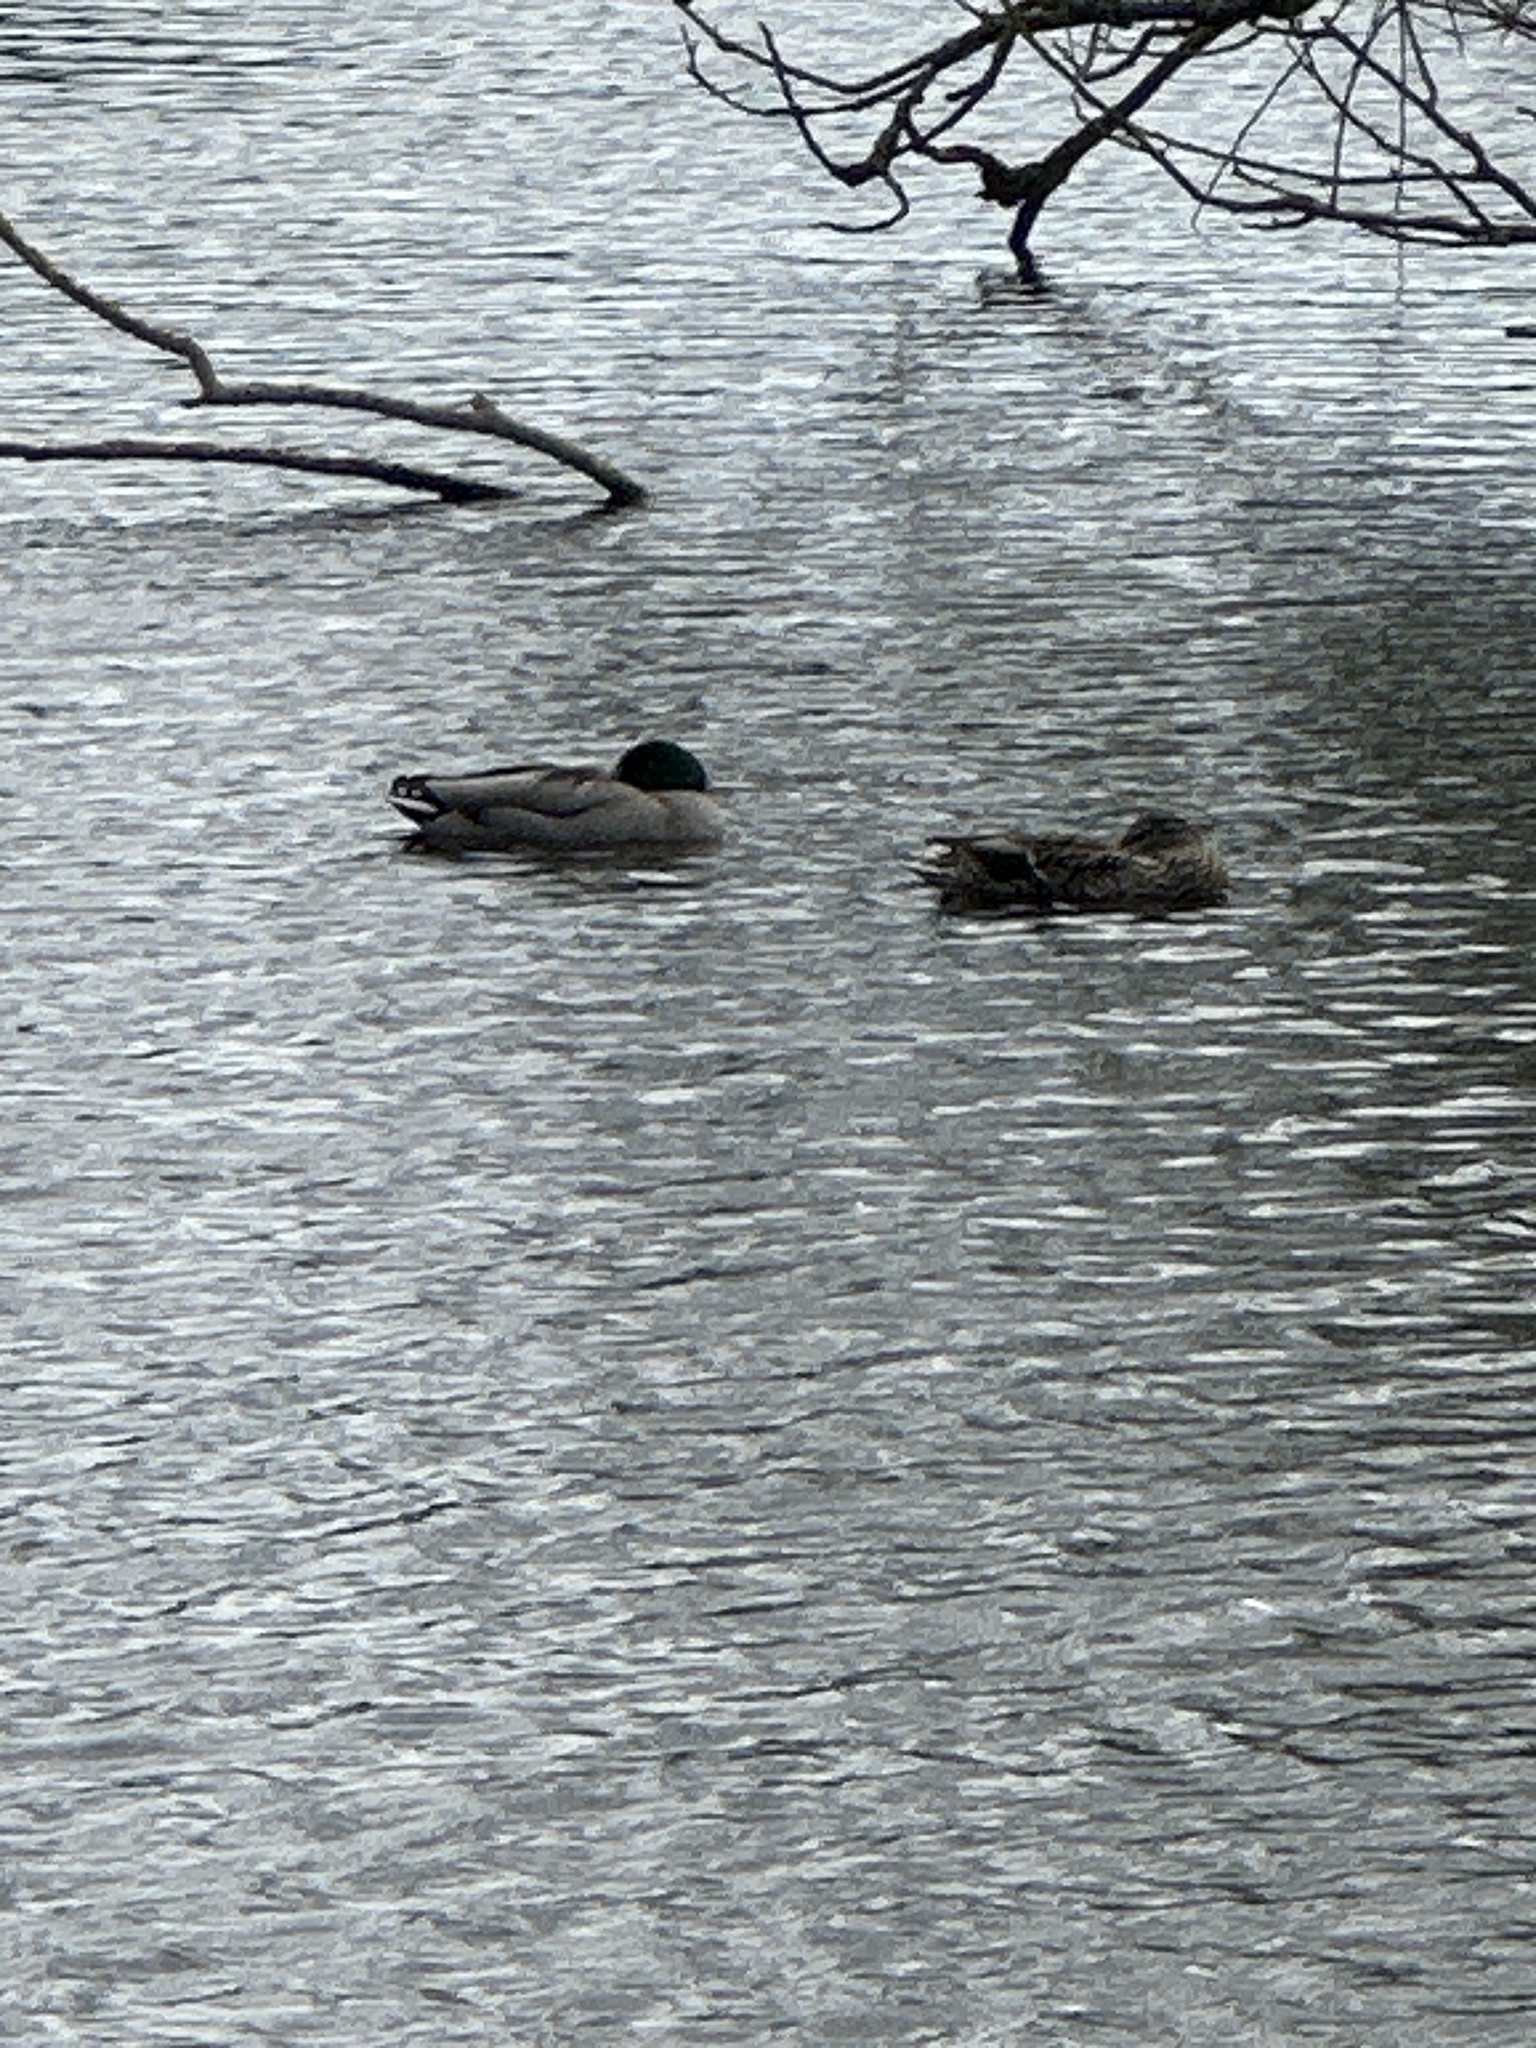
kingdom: Animalia
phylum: Chordata
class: Aves
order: Anseriformes
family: Anatidae
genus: Anas
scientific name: Anas platyrhynchos
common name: Mallard
